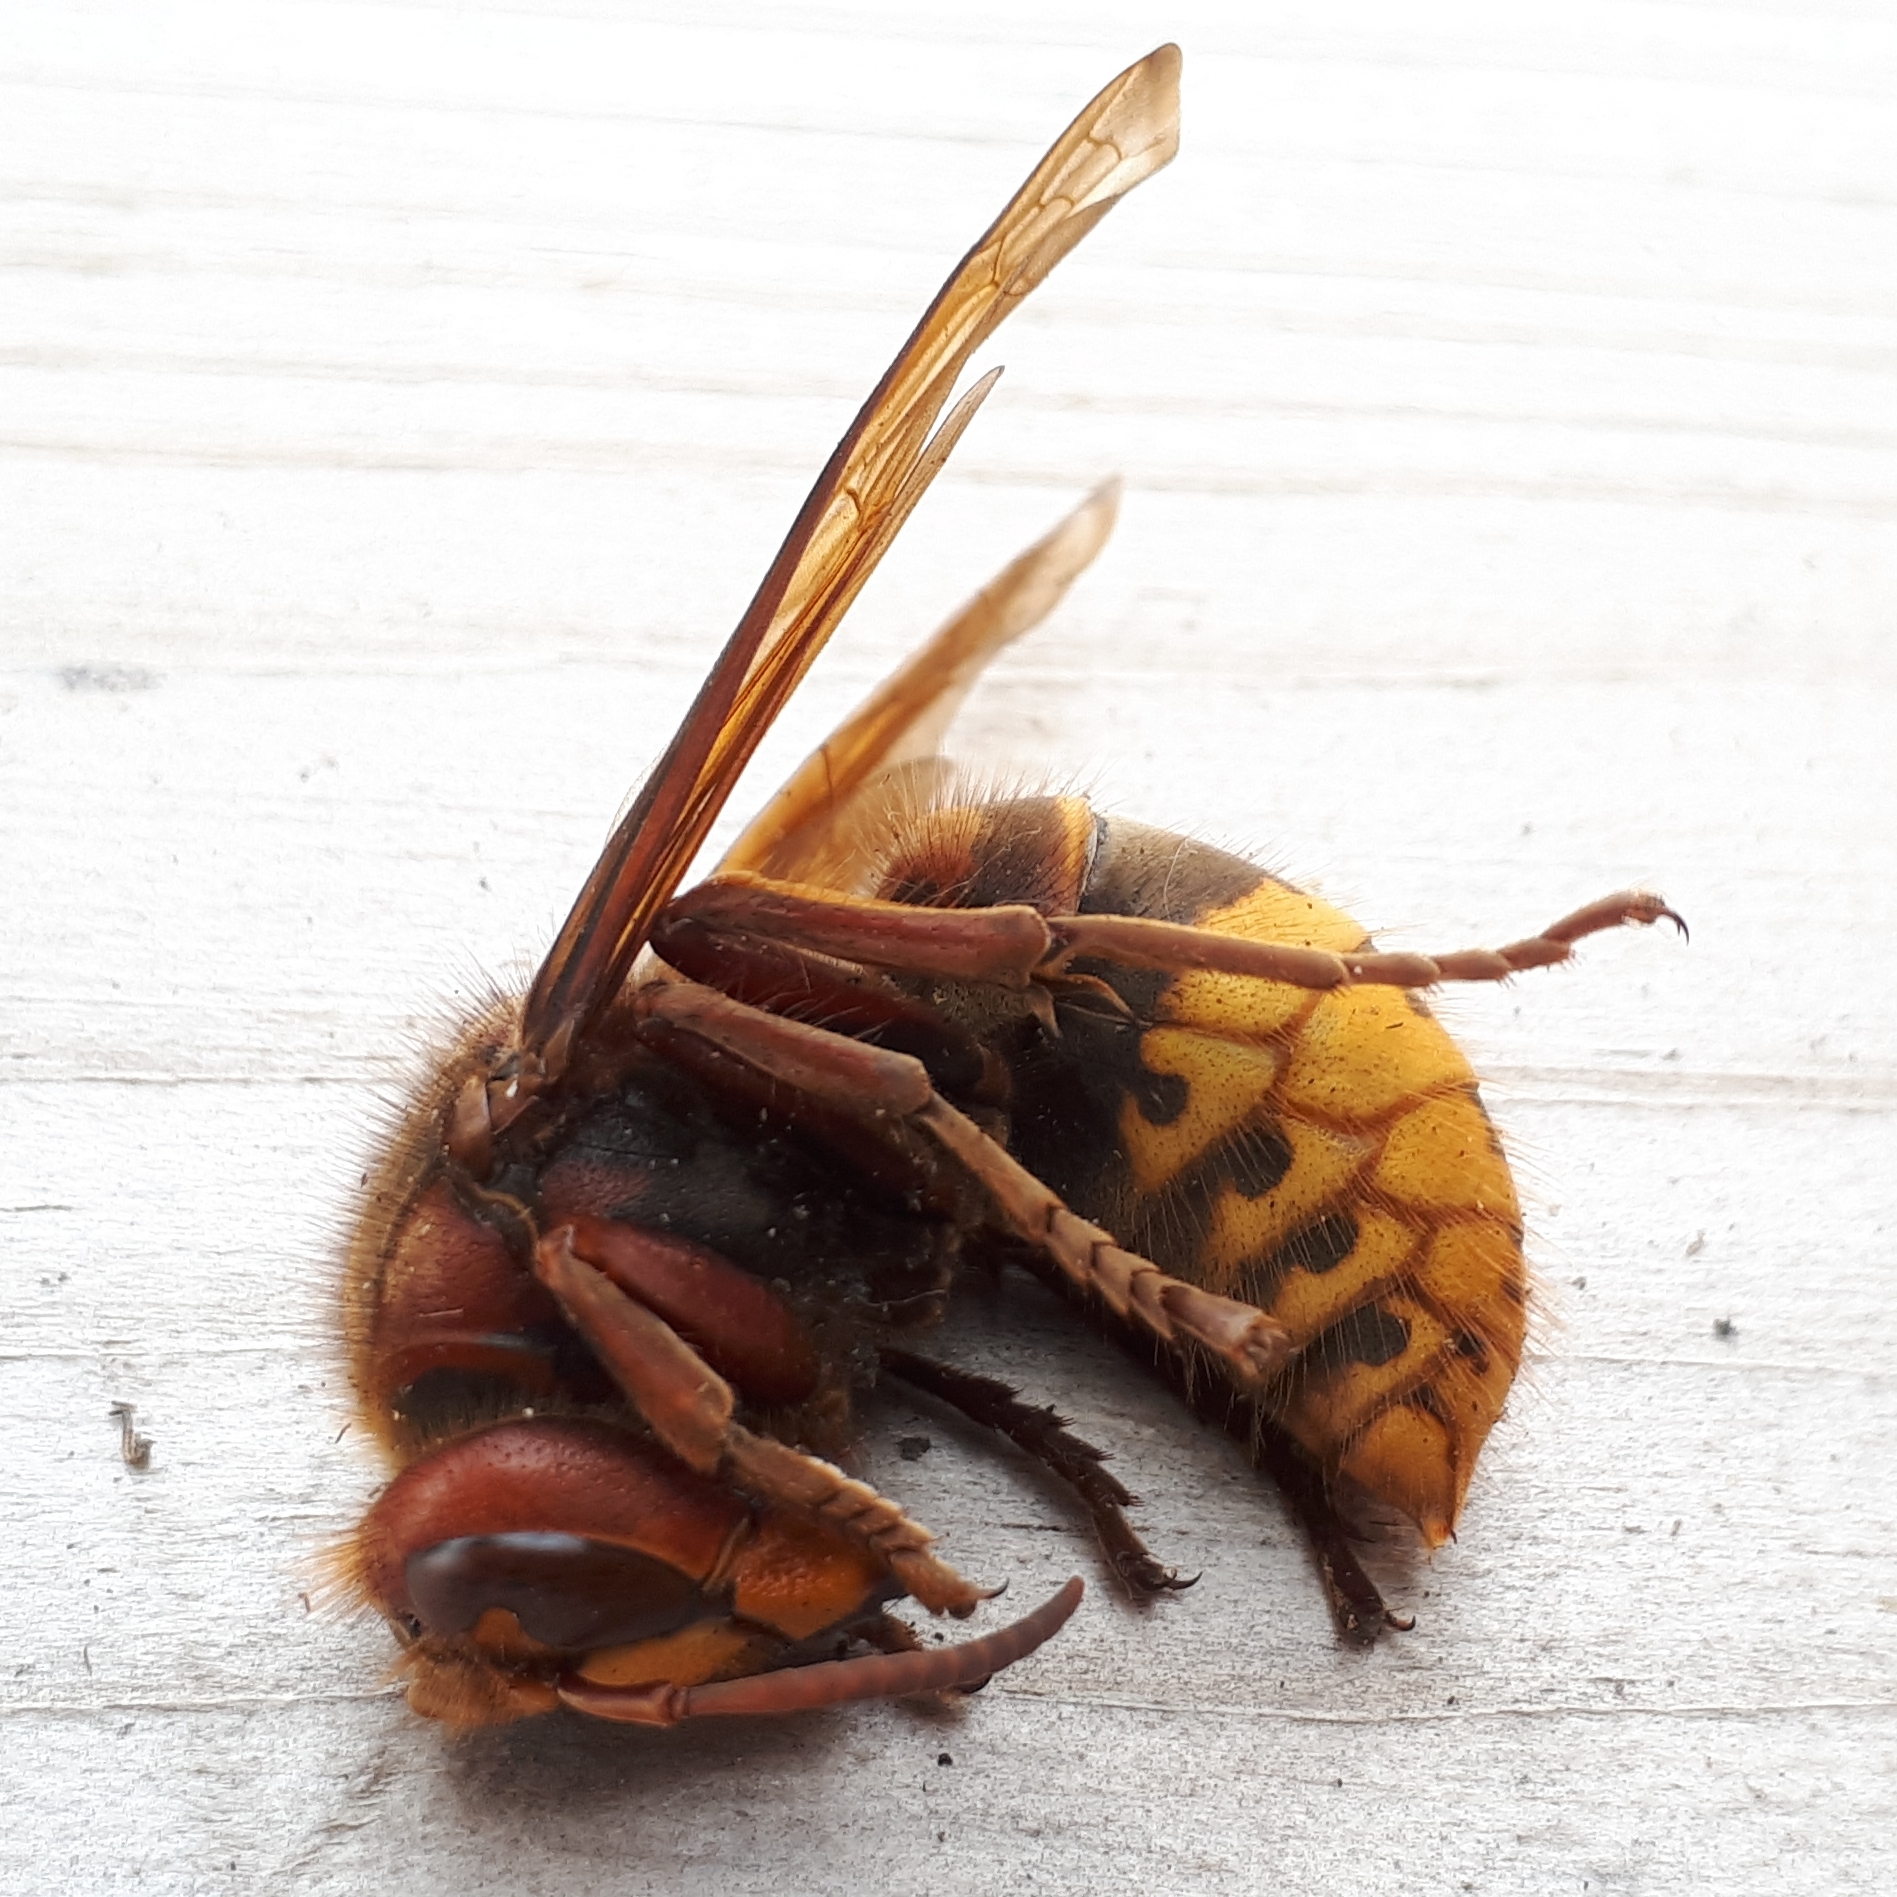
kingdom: Animalia
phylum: Arthropoda
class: Insecta
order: Hymenoptera
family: Vespidae
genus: Vespa
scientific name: Vespa crabro
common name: Hornet
